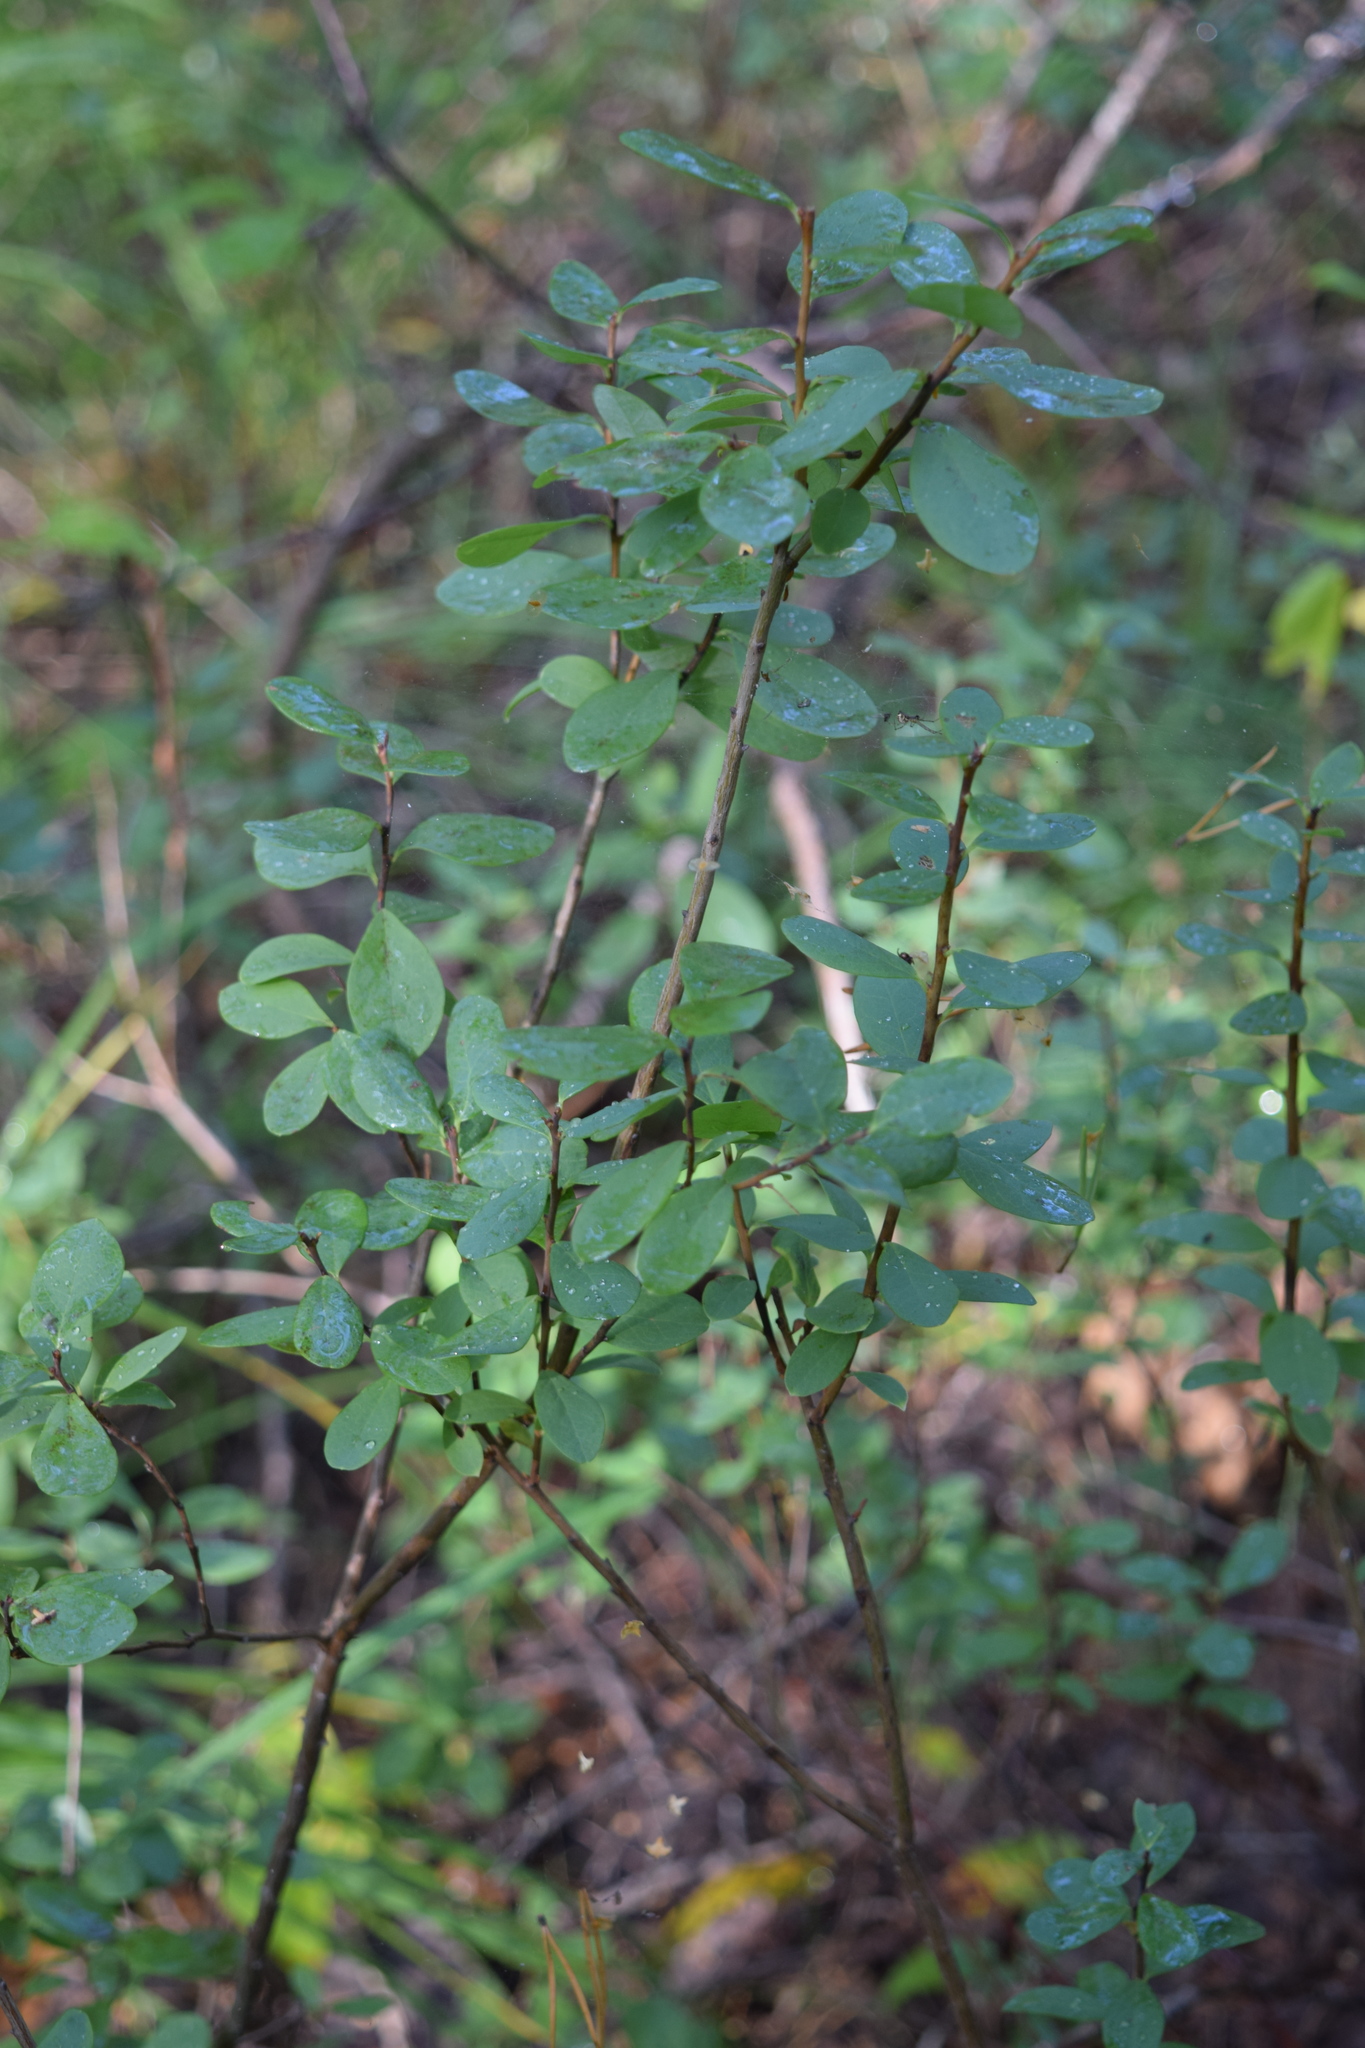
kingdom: Plantae
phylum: Tracheophyta
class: Magnoliopsida
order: Ericales
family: Ericaceae
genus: Vaccinium
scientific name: Vaccinium uliginosum
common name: Bog bilberry
